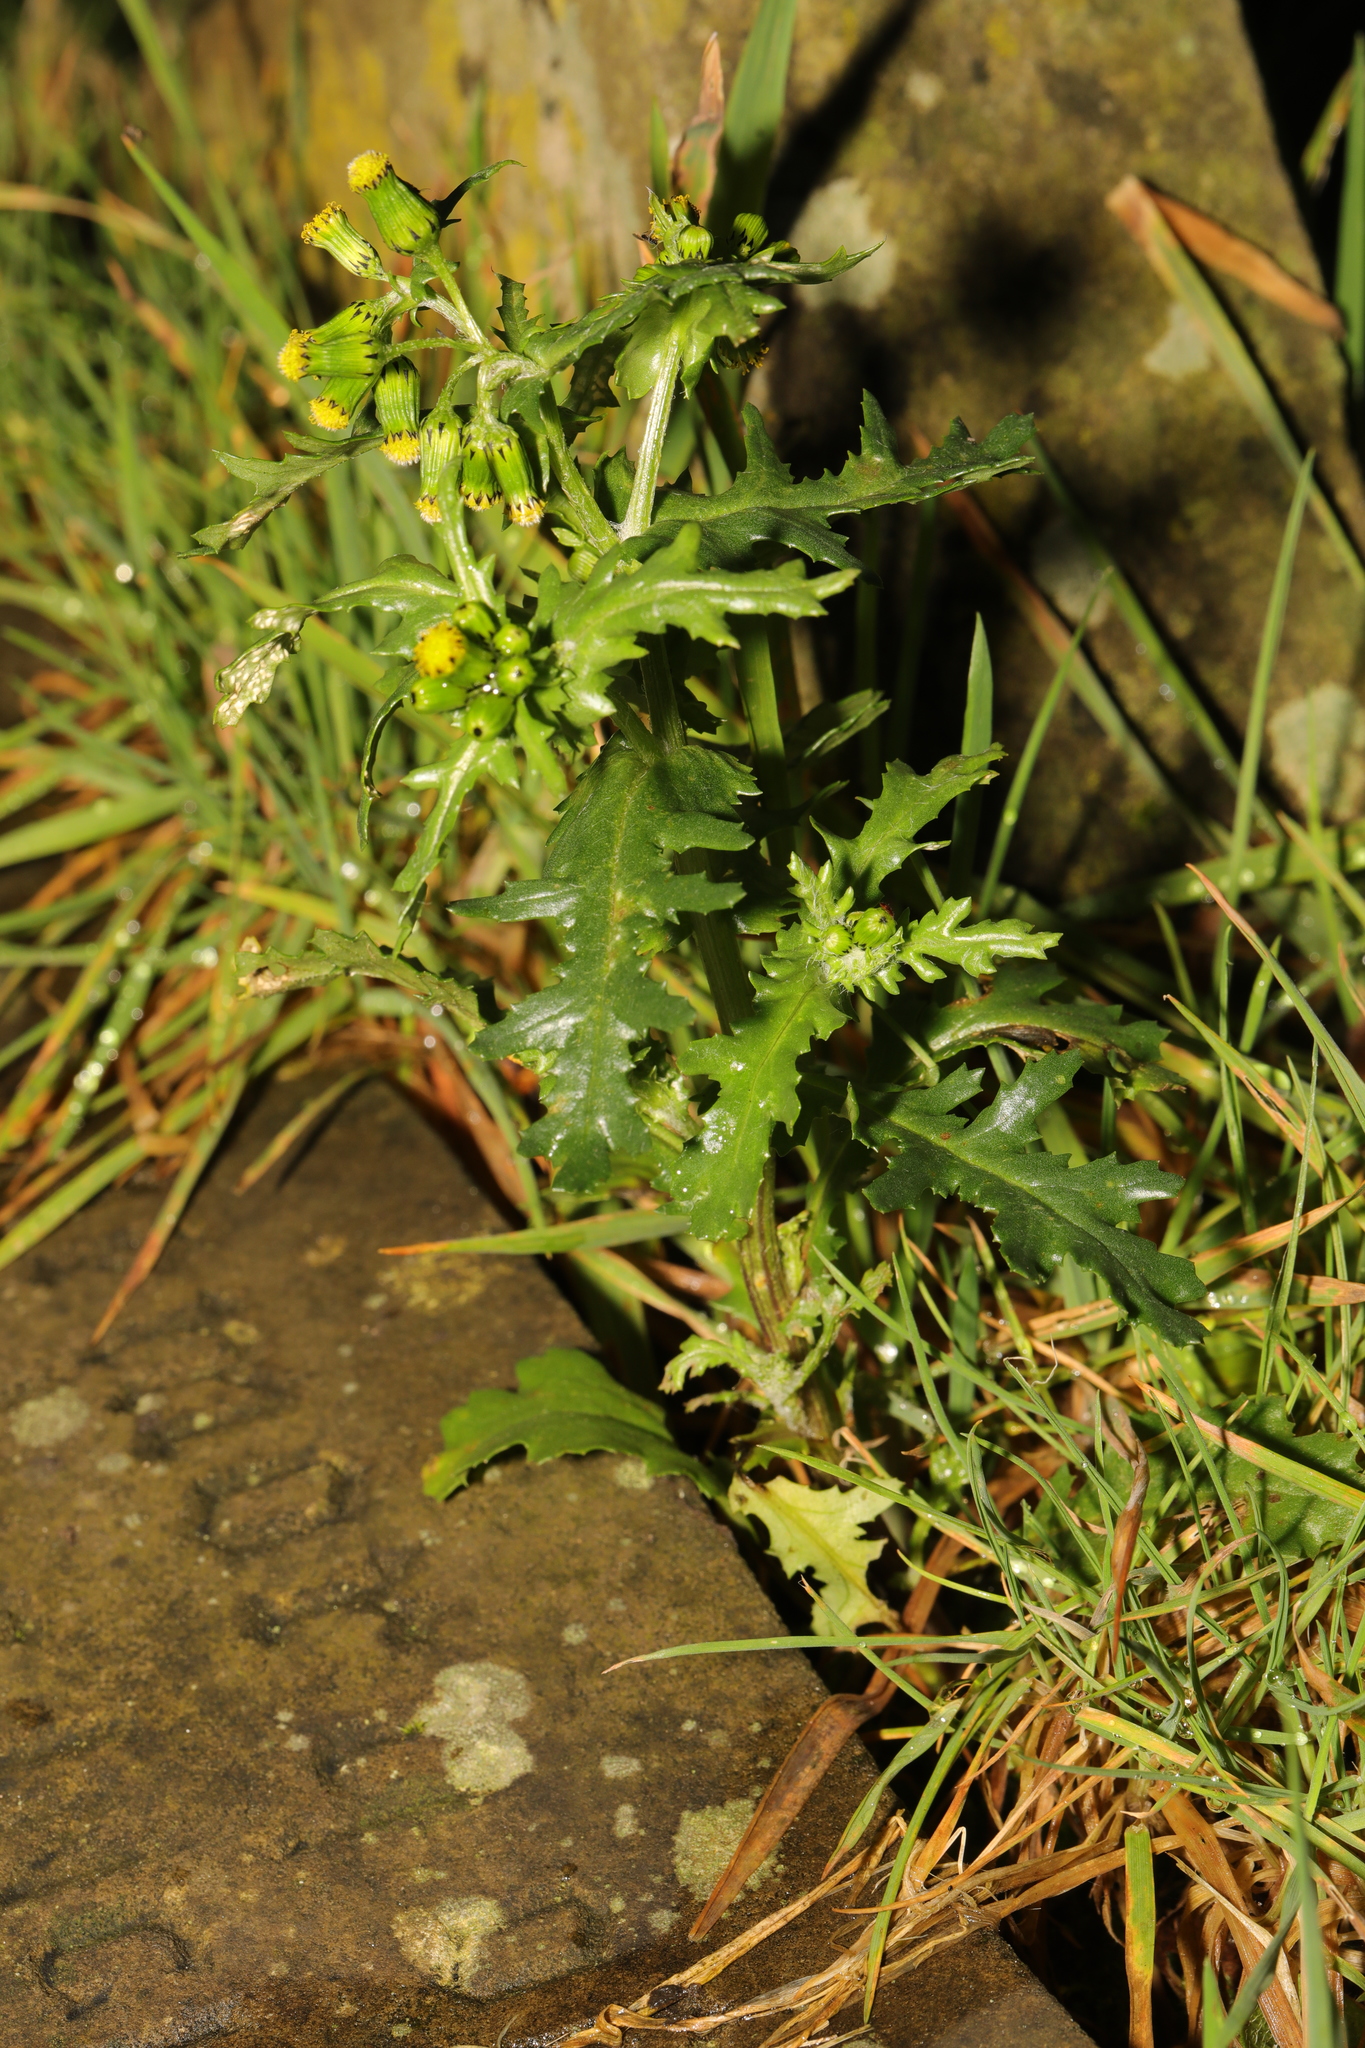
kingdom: Plantae
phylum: Tracheophyta
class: Magnoliopsida
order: Asterales
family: Asteraceae
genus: Senecio
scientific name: Senecio vulgaris
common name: Old-man-in-the-spring
